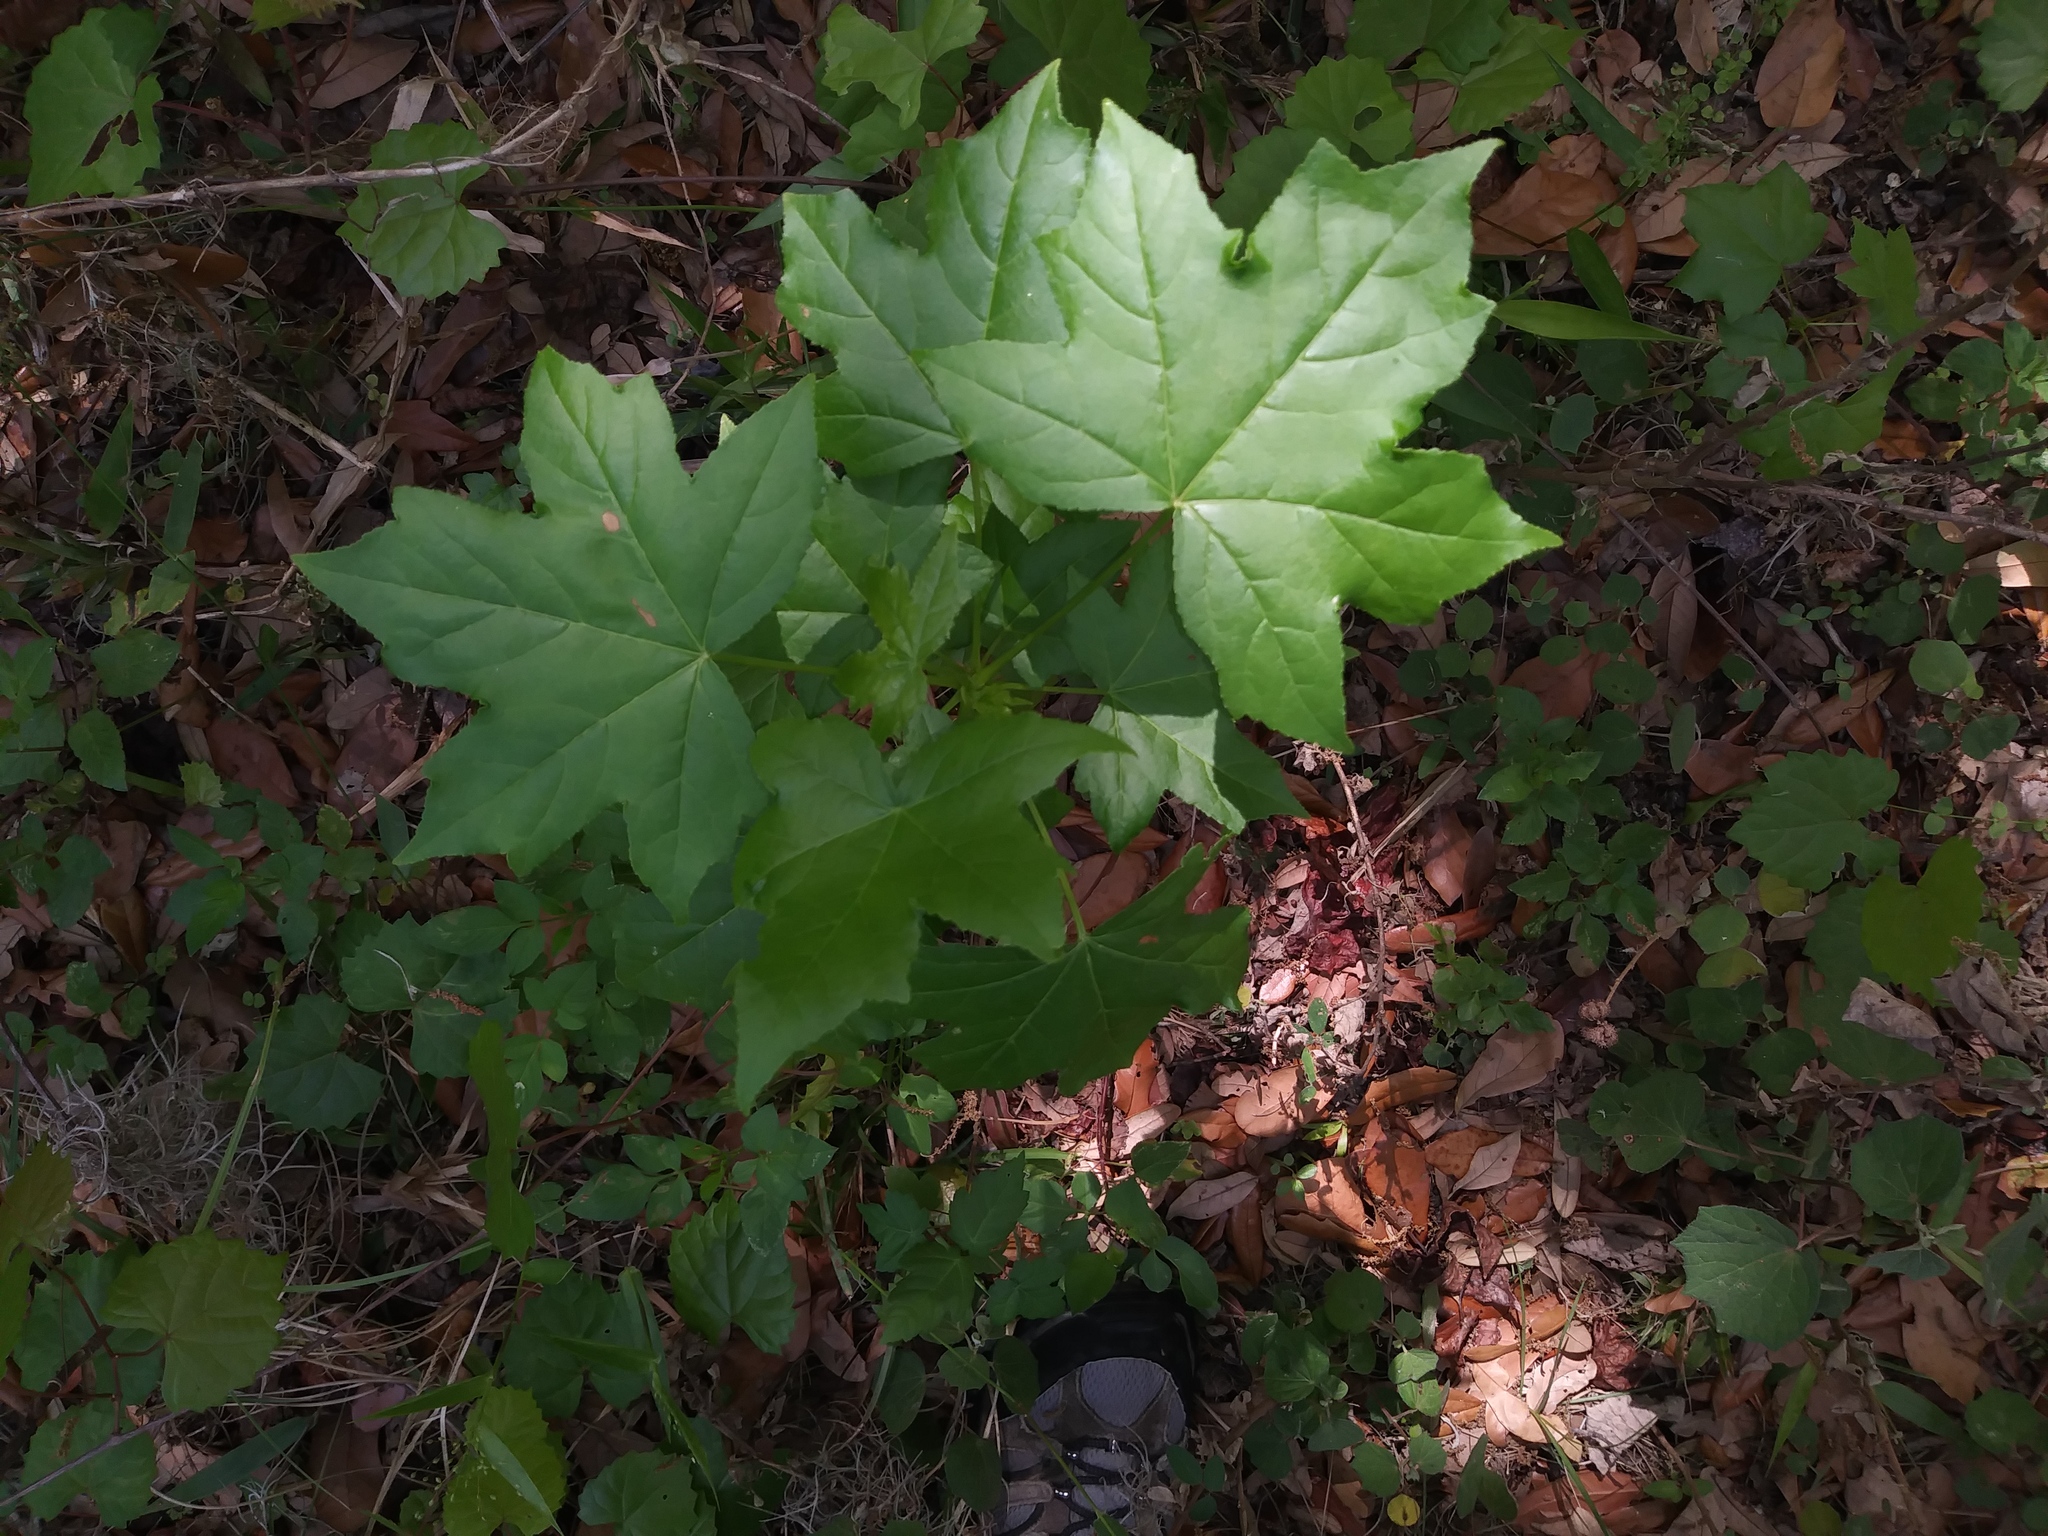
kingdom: Plantae
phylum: Tracheophyta
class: Magnoliopsida
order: Saxifragales
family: Altingiaceae
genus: Liquidambar
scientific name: Liquidambar styraciflua
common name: Sweet gum
